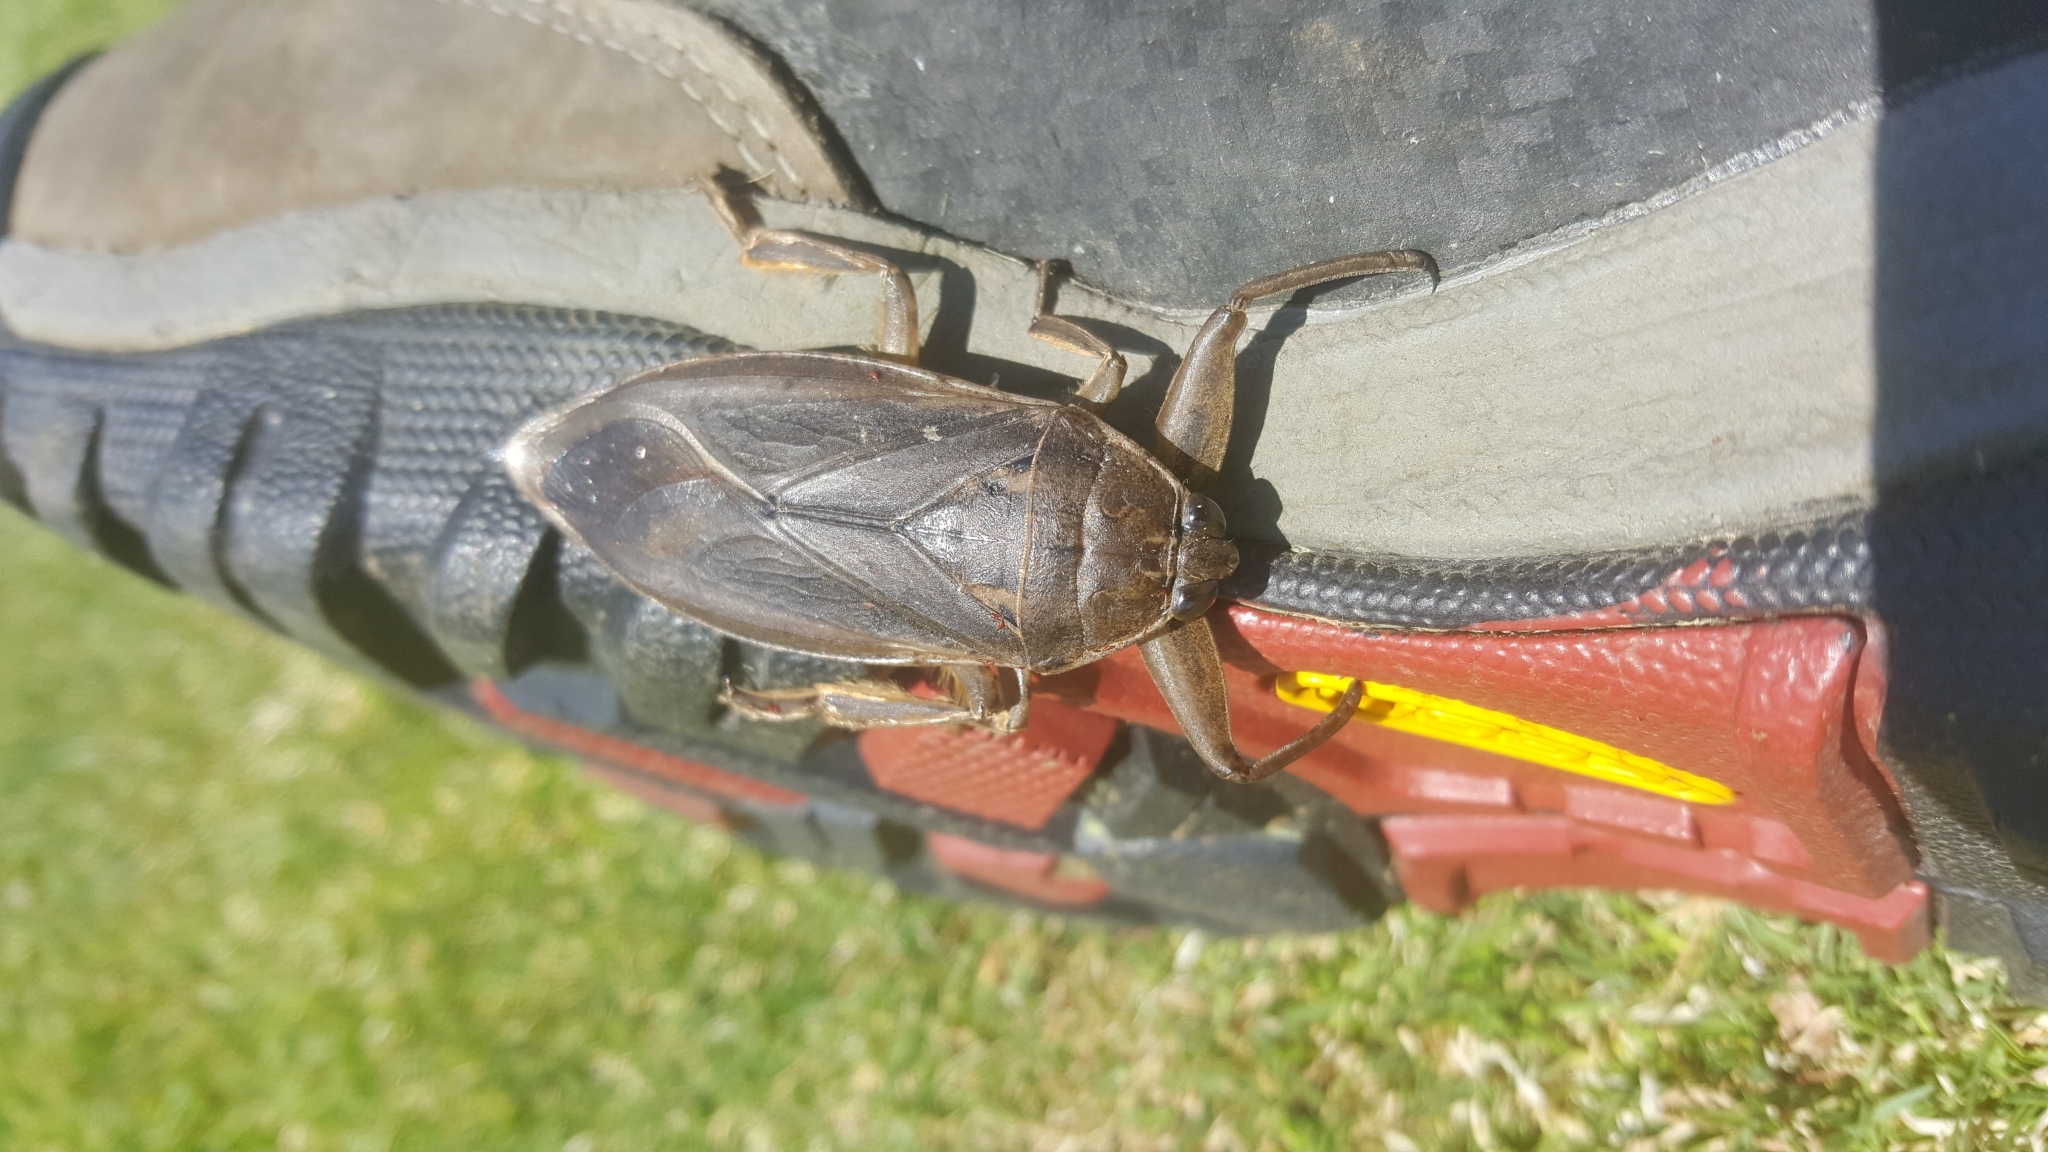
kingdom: Animalia
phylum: Arthropoda
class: Insecta
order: Hemiptera
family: Belostomatidae
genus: Lethocerus
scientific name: Lethocerus americanus
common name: Giant water bug
